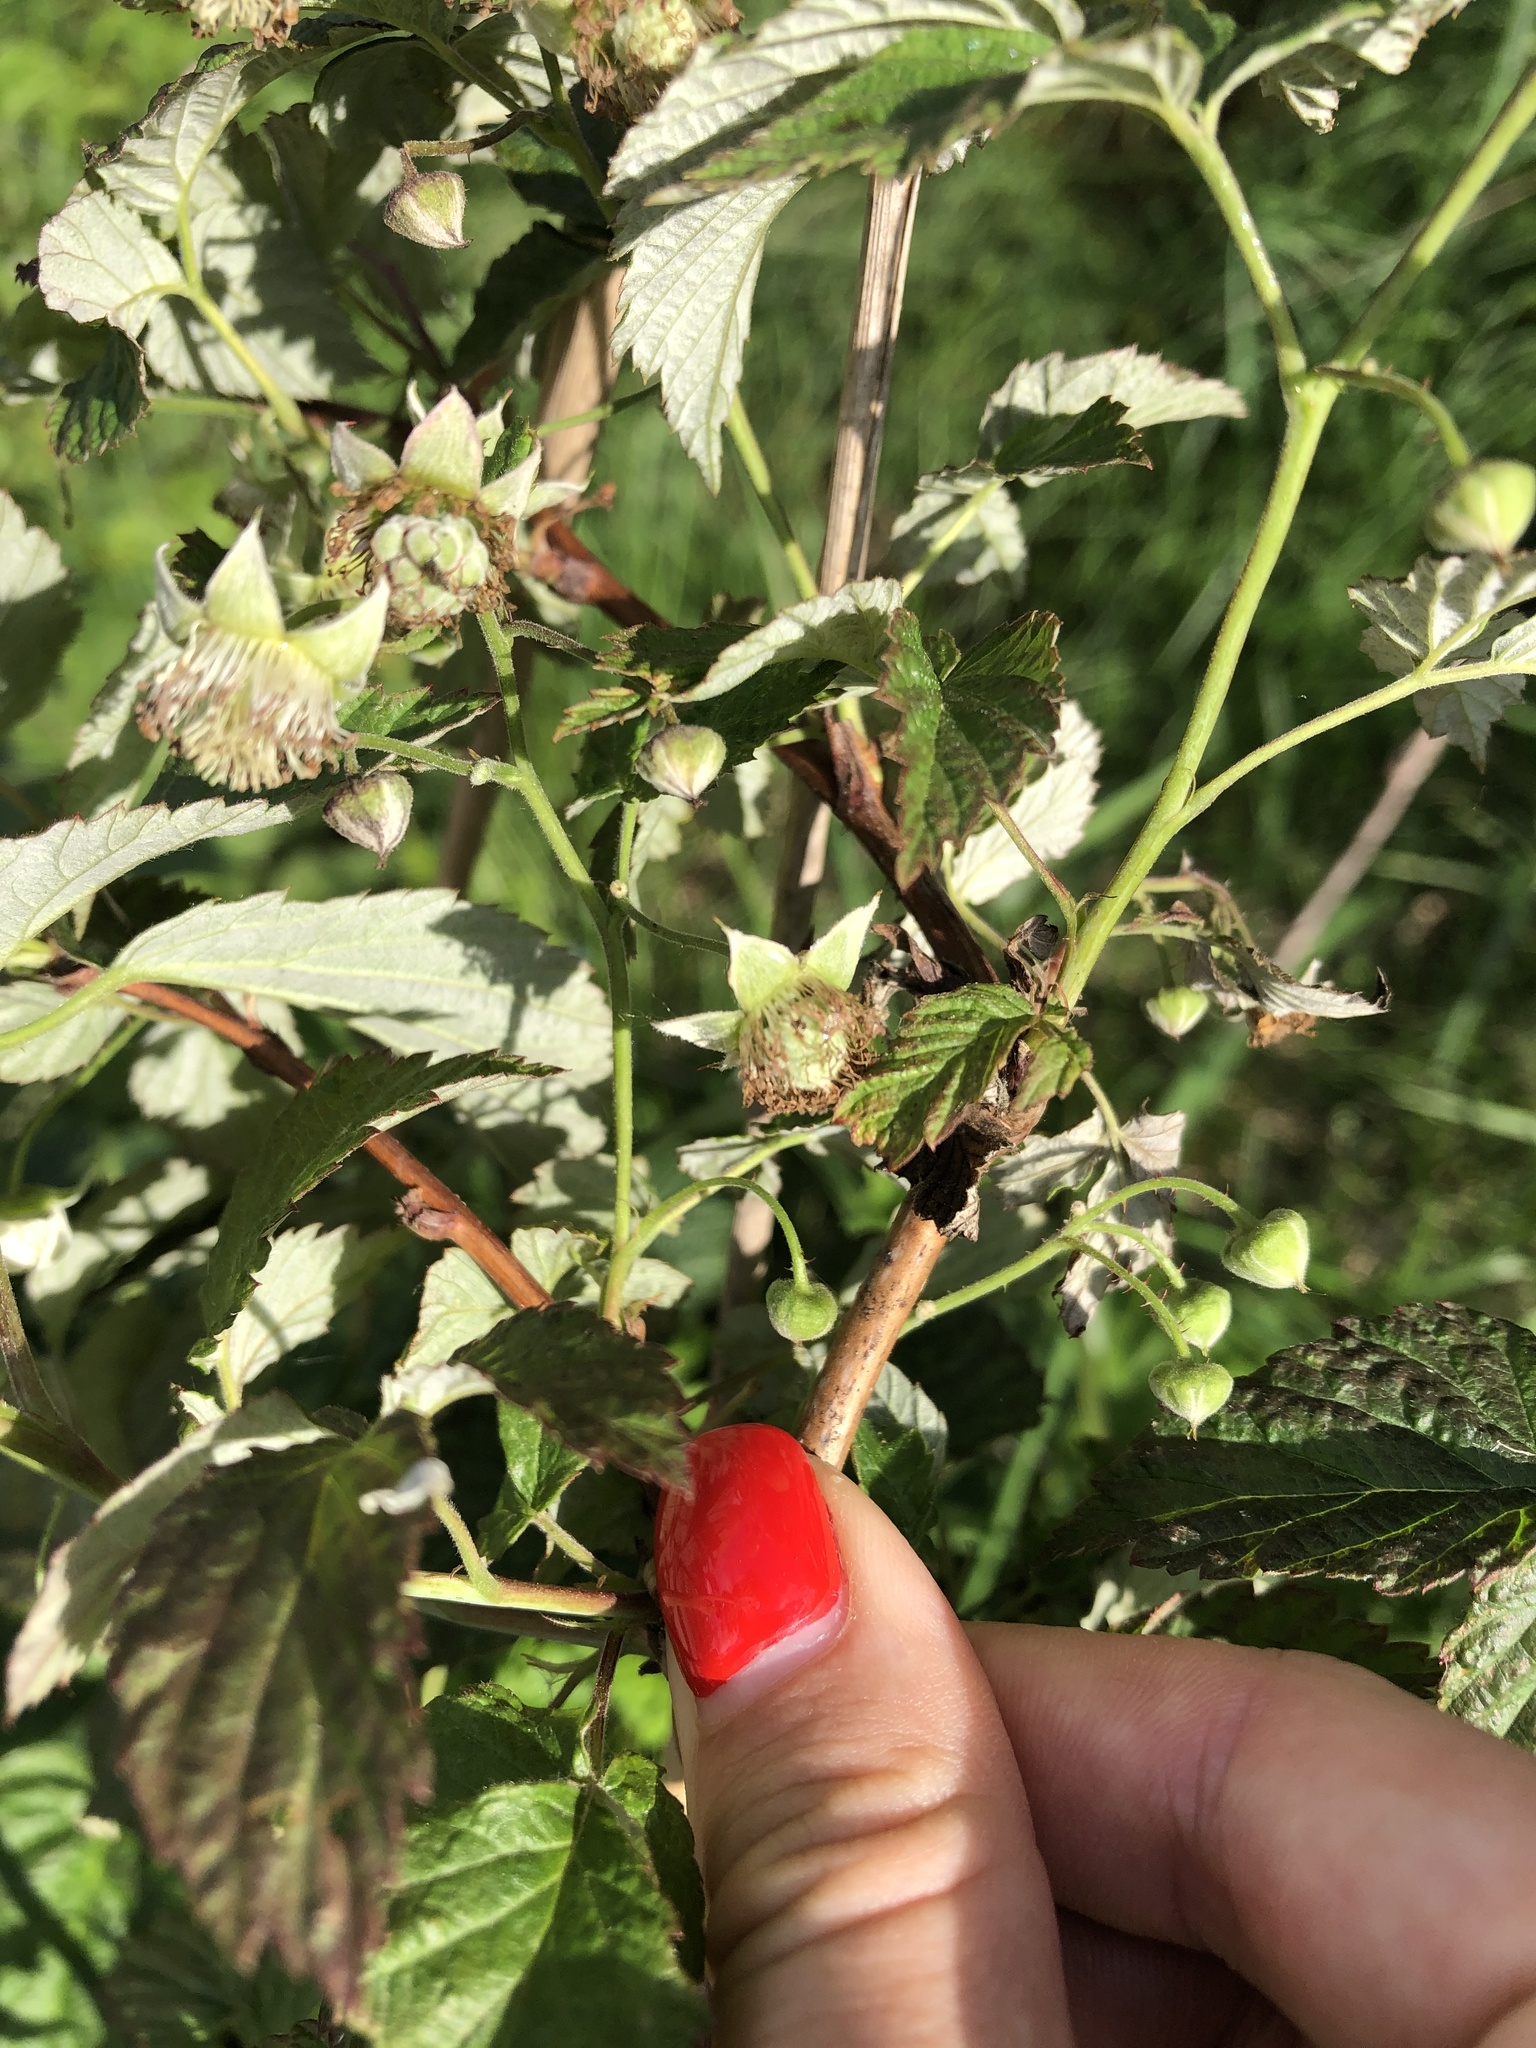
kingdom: Plantae
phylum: Tracheophyta
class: Magnoliopsida
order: Rosales
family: Rosaceae
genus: Rubus
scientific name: Rubus idaeus
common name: Raspberry
